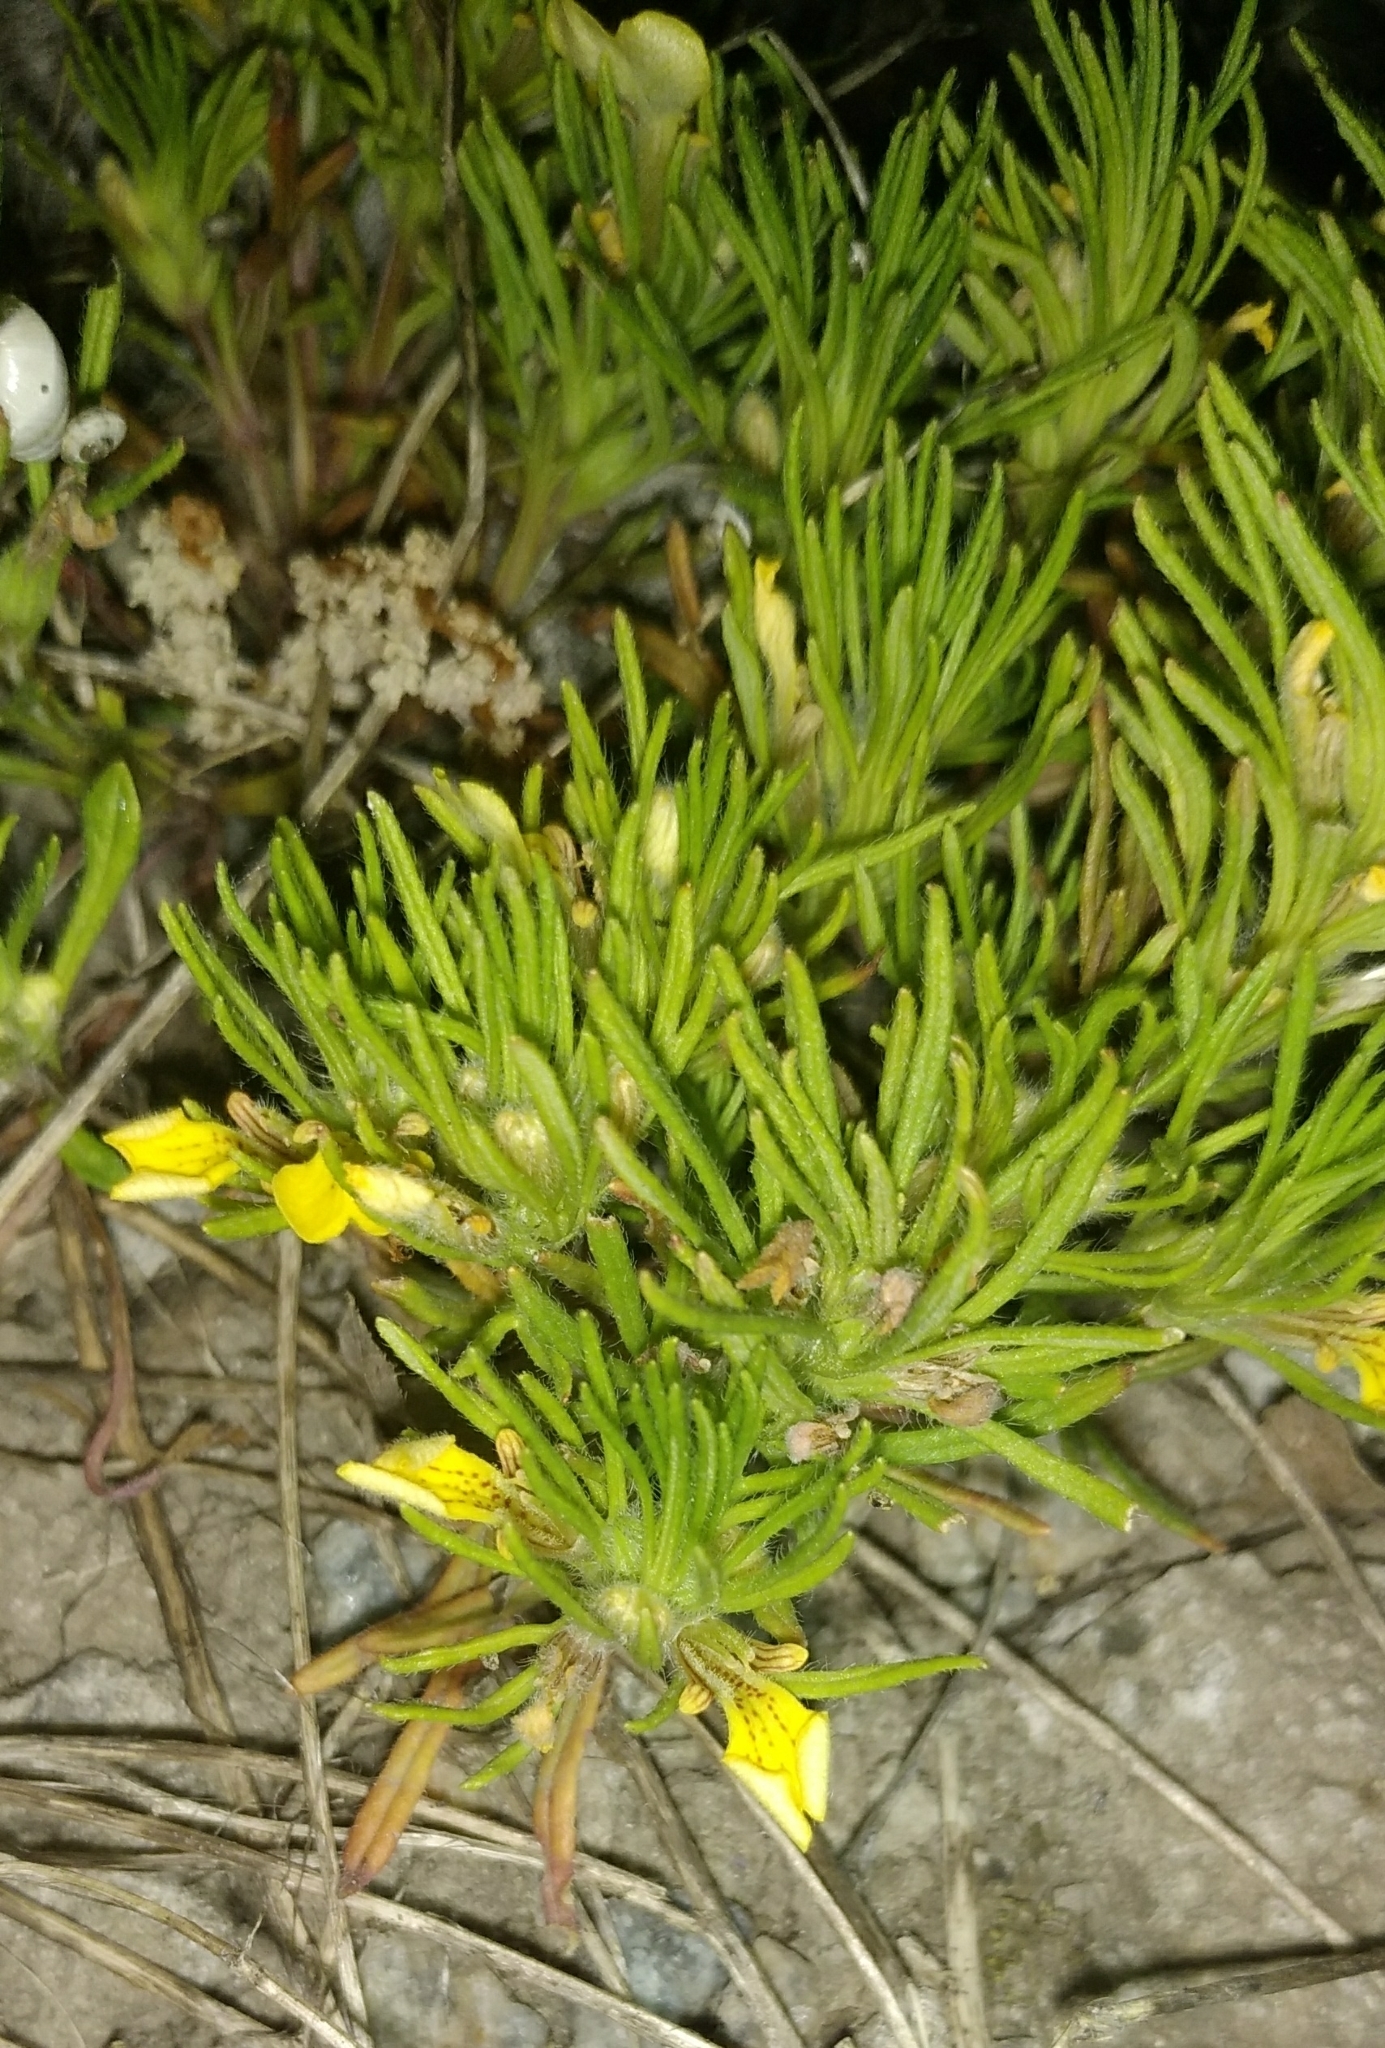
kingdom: Plantae
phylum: Tracheophyta
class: Magnoliopsida
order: Lamiales
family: Lamiaceae
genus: Ajuga
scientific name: Ajuga chamaepitys
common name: Ground-pine
